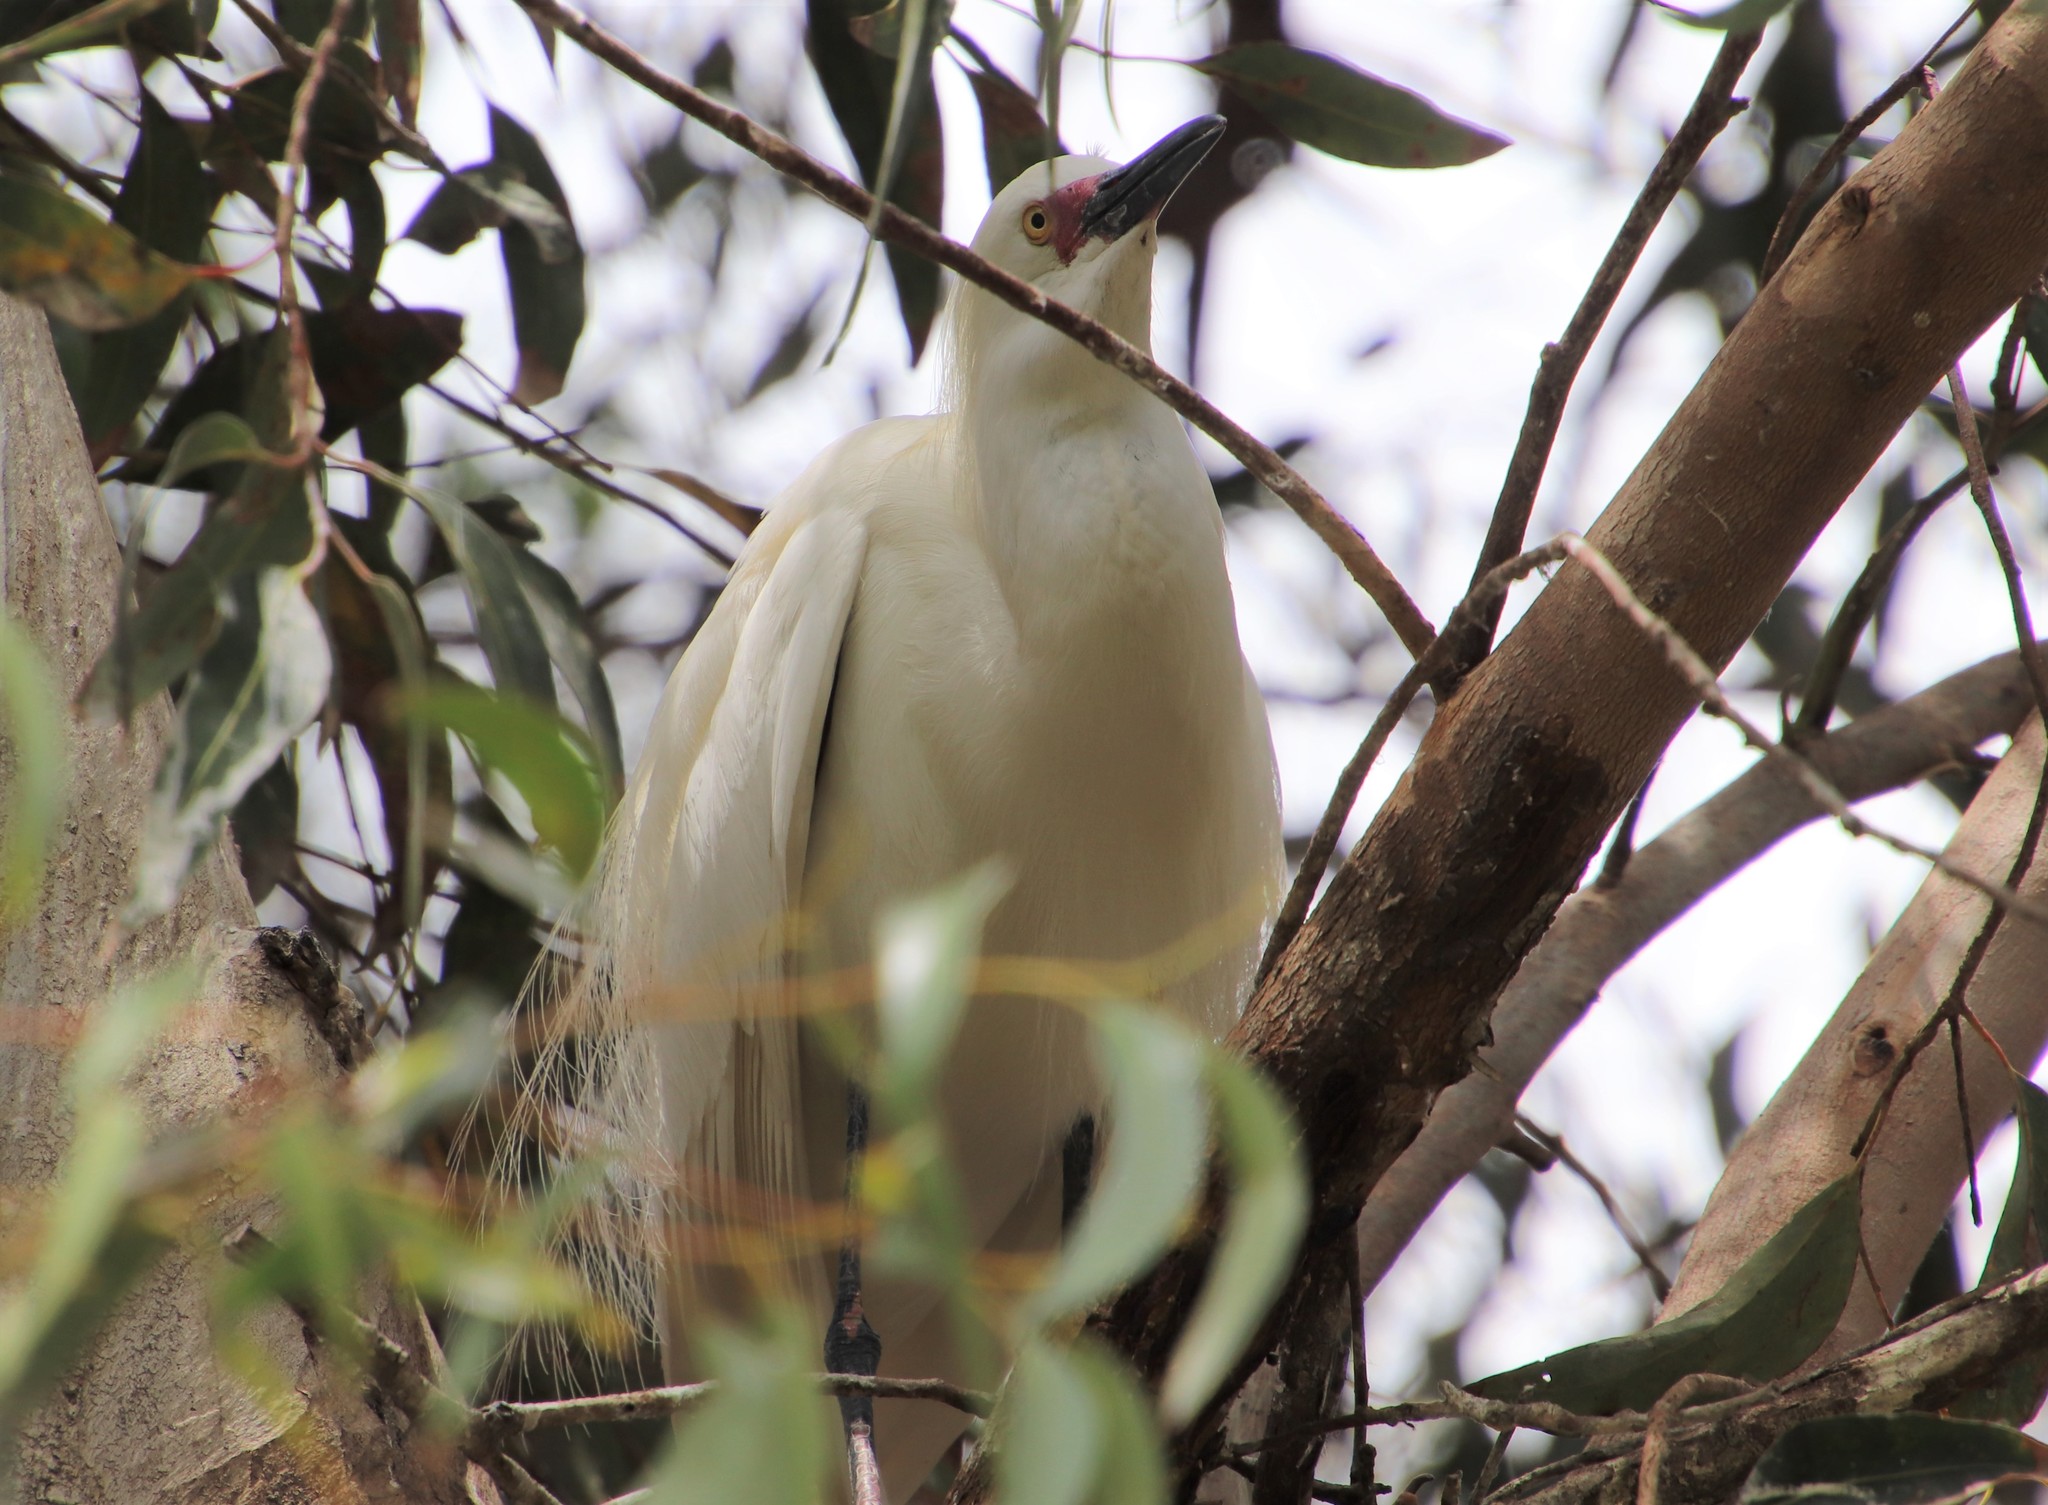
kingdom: Animalia
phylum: Chordata
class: Aves
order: Pelecaniformes
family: Ardeidae
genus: Egretta
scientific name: Egretta thula
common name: Snowy egret
